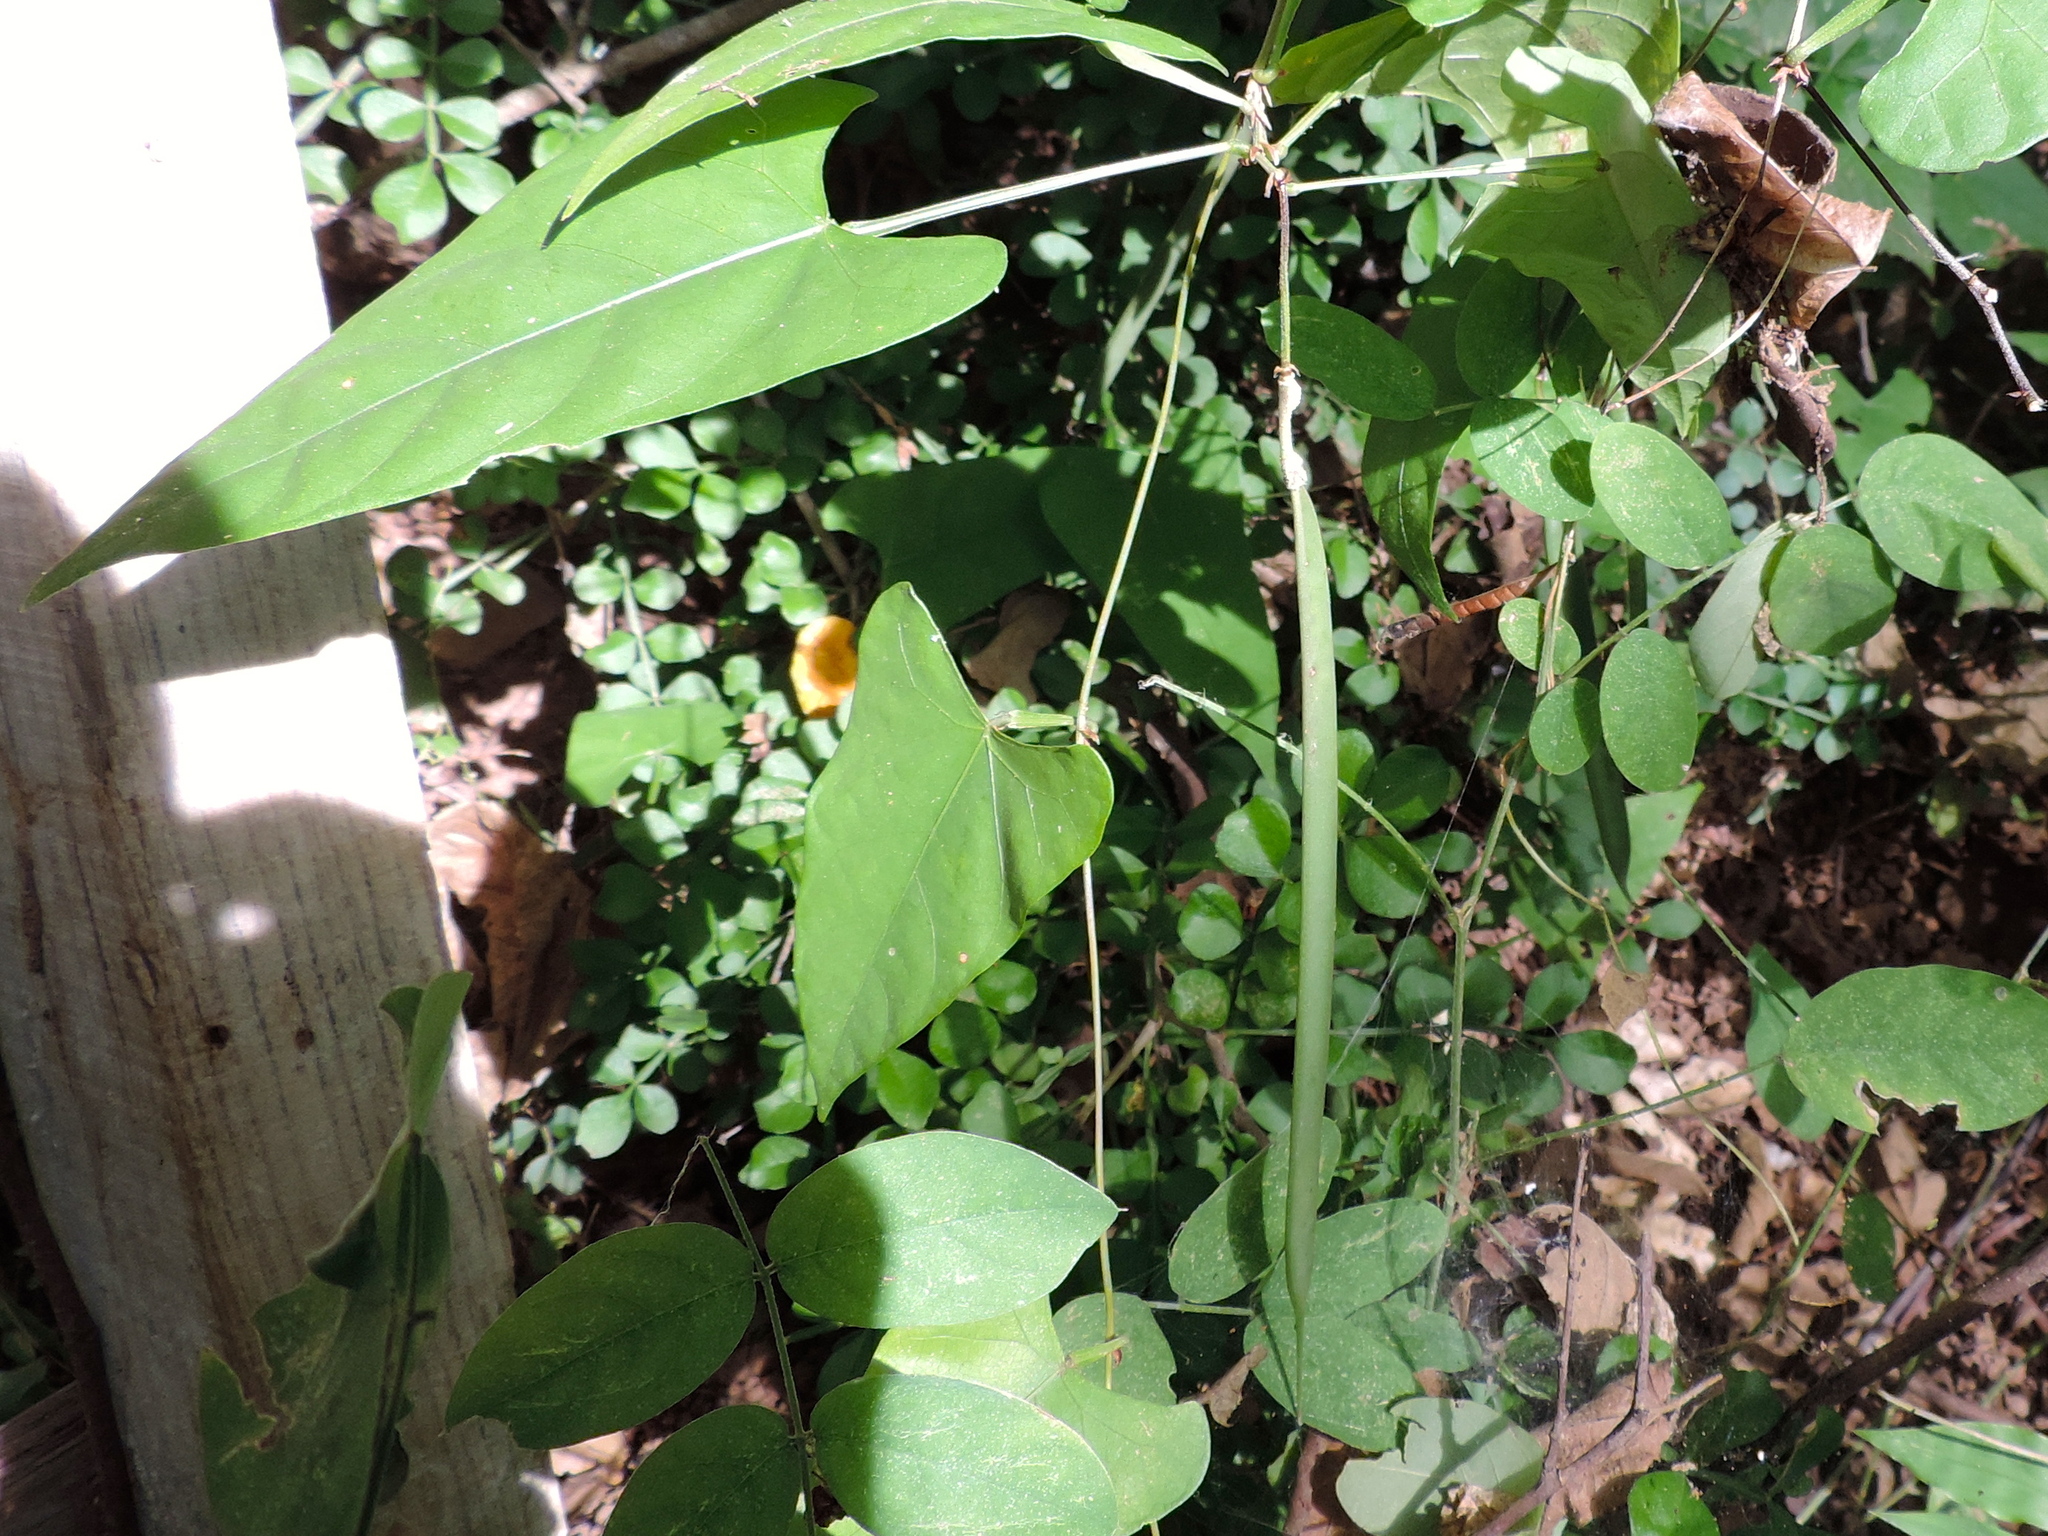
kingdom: Plantae
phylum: Tracheophyta
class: Magnoliopsida
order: Fabales
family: Fabaceae
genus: Centrosema
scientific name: Centrosema sagittatum
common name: Arrowleaf butterfly pea
